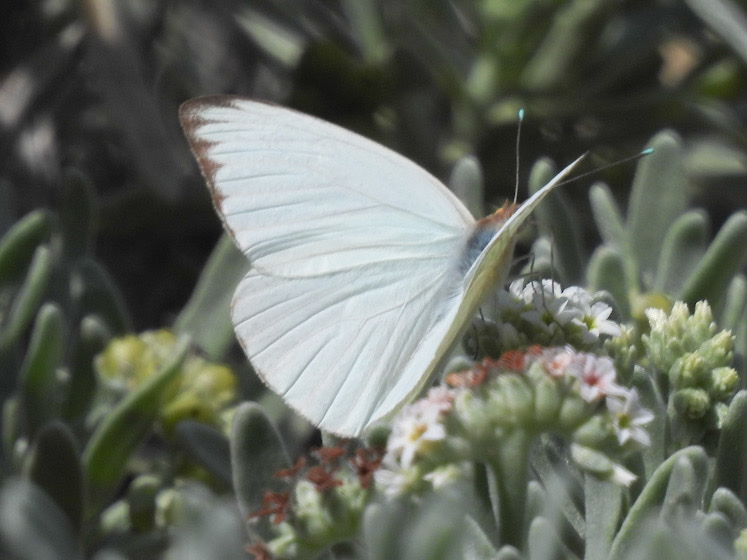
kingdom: Animalia
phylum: Arthropoda
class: Insecta
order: Lepidoptera
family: Pieridae
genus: Ascia
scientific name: Ascia monuste
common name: Great southern white
